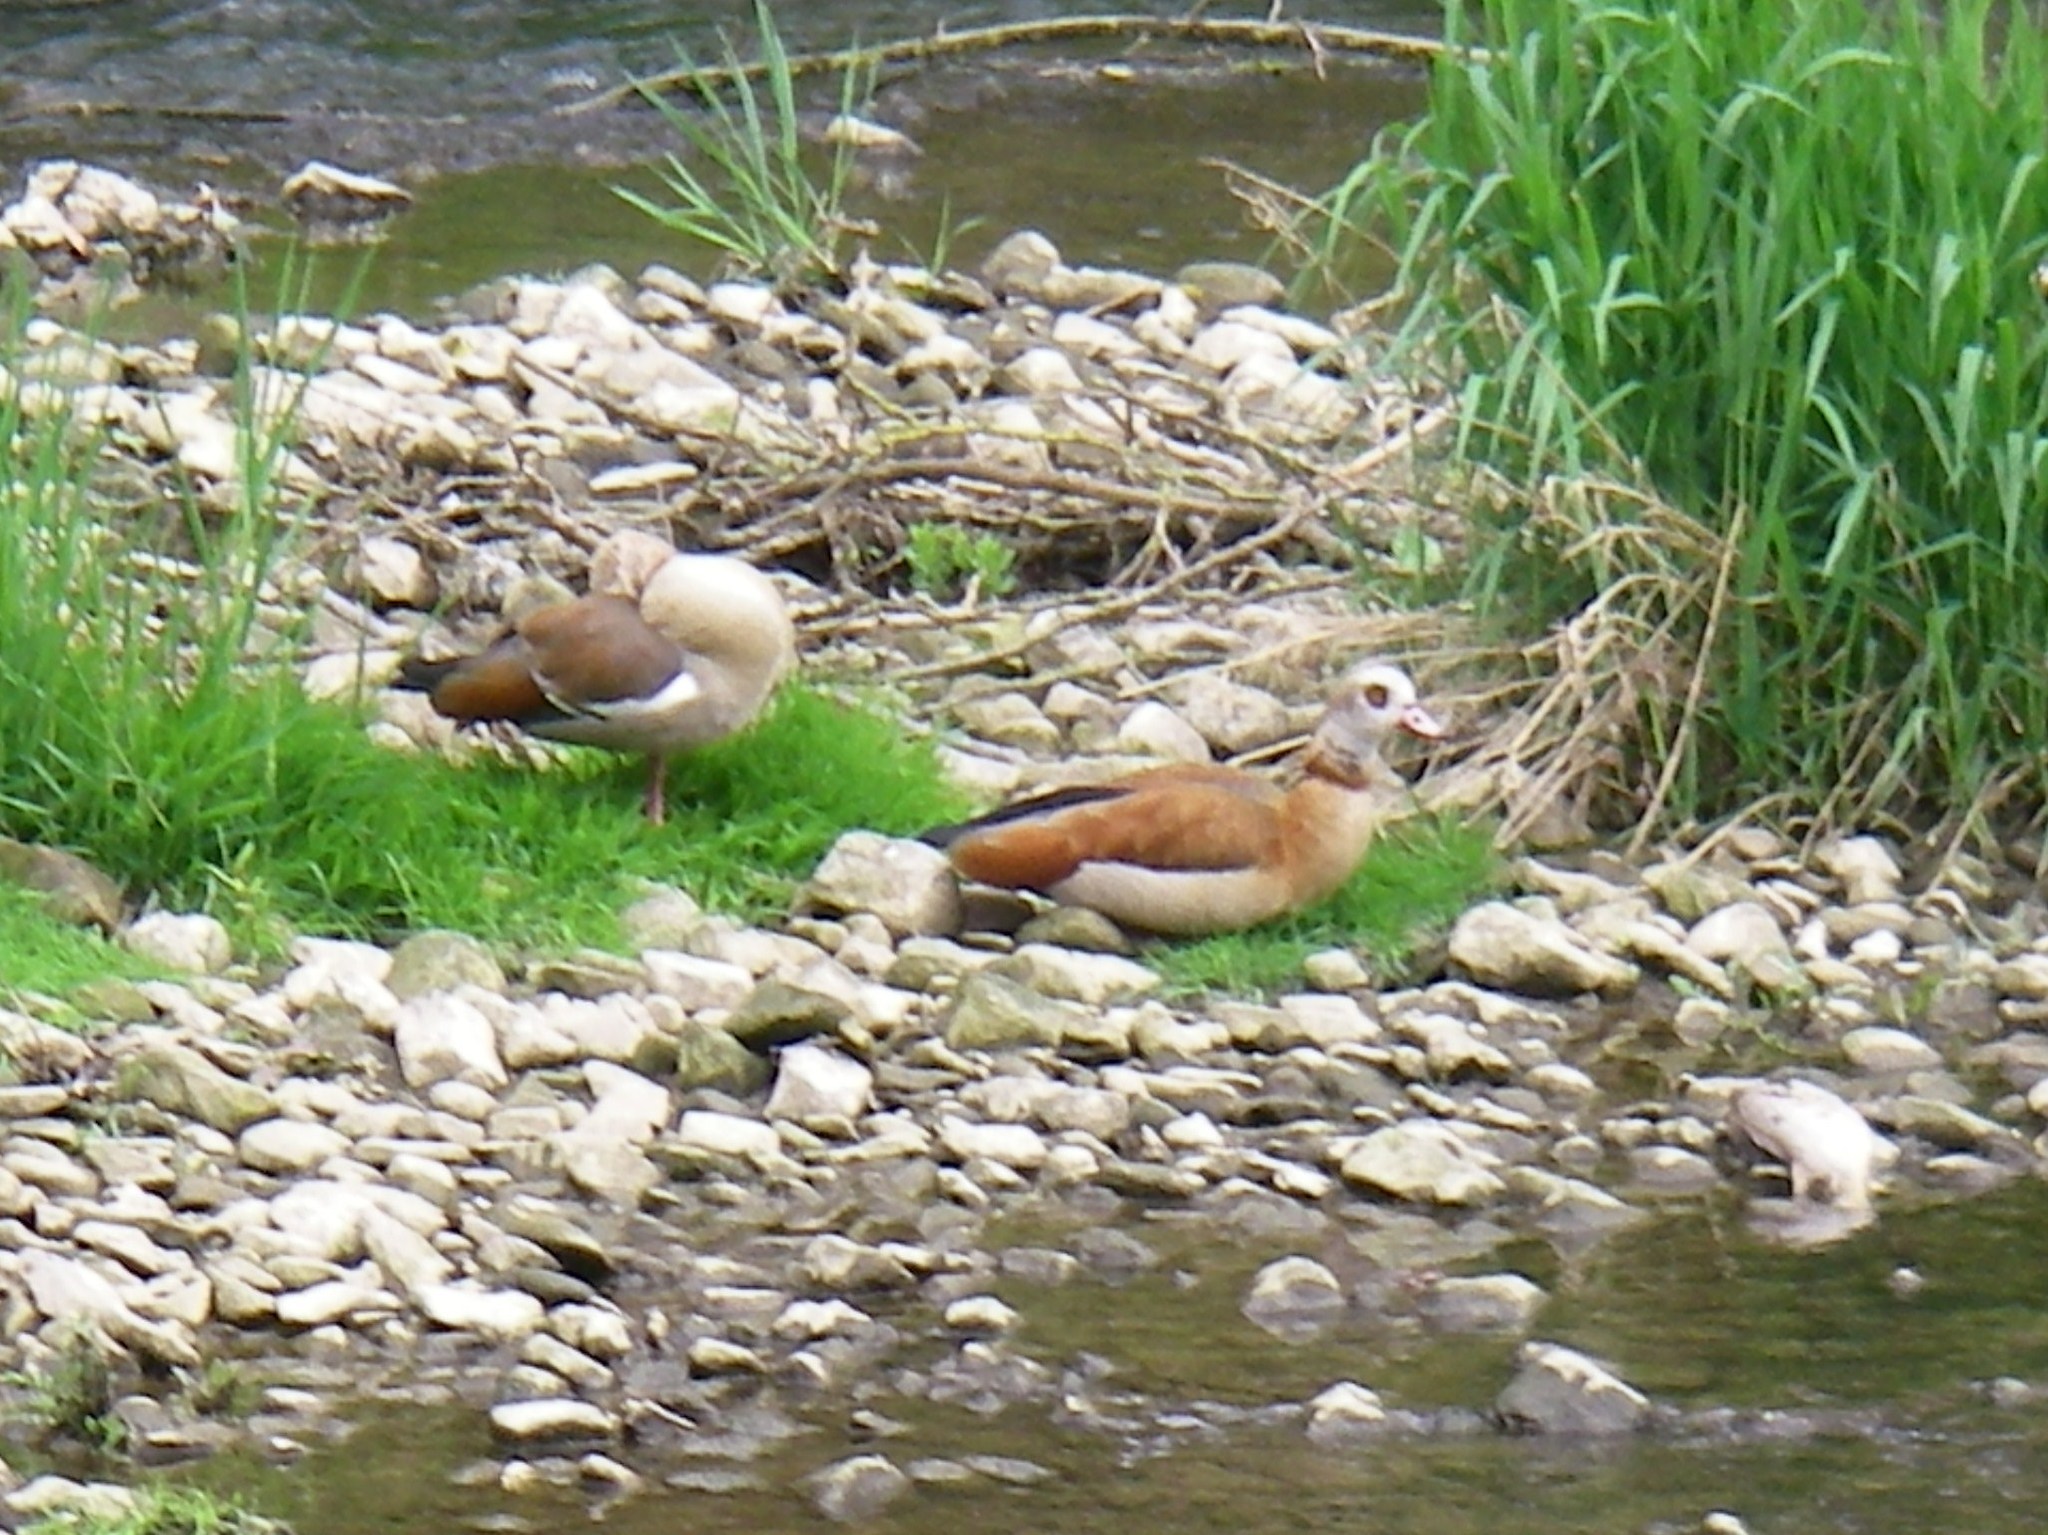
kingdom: Animalia
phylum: Chordata
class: Aves
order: Anseriformes
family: Anatidae
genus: Alopochen
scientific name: Alopochen aegyptiaca
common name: Egyptian goose
